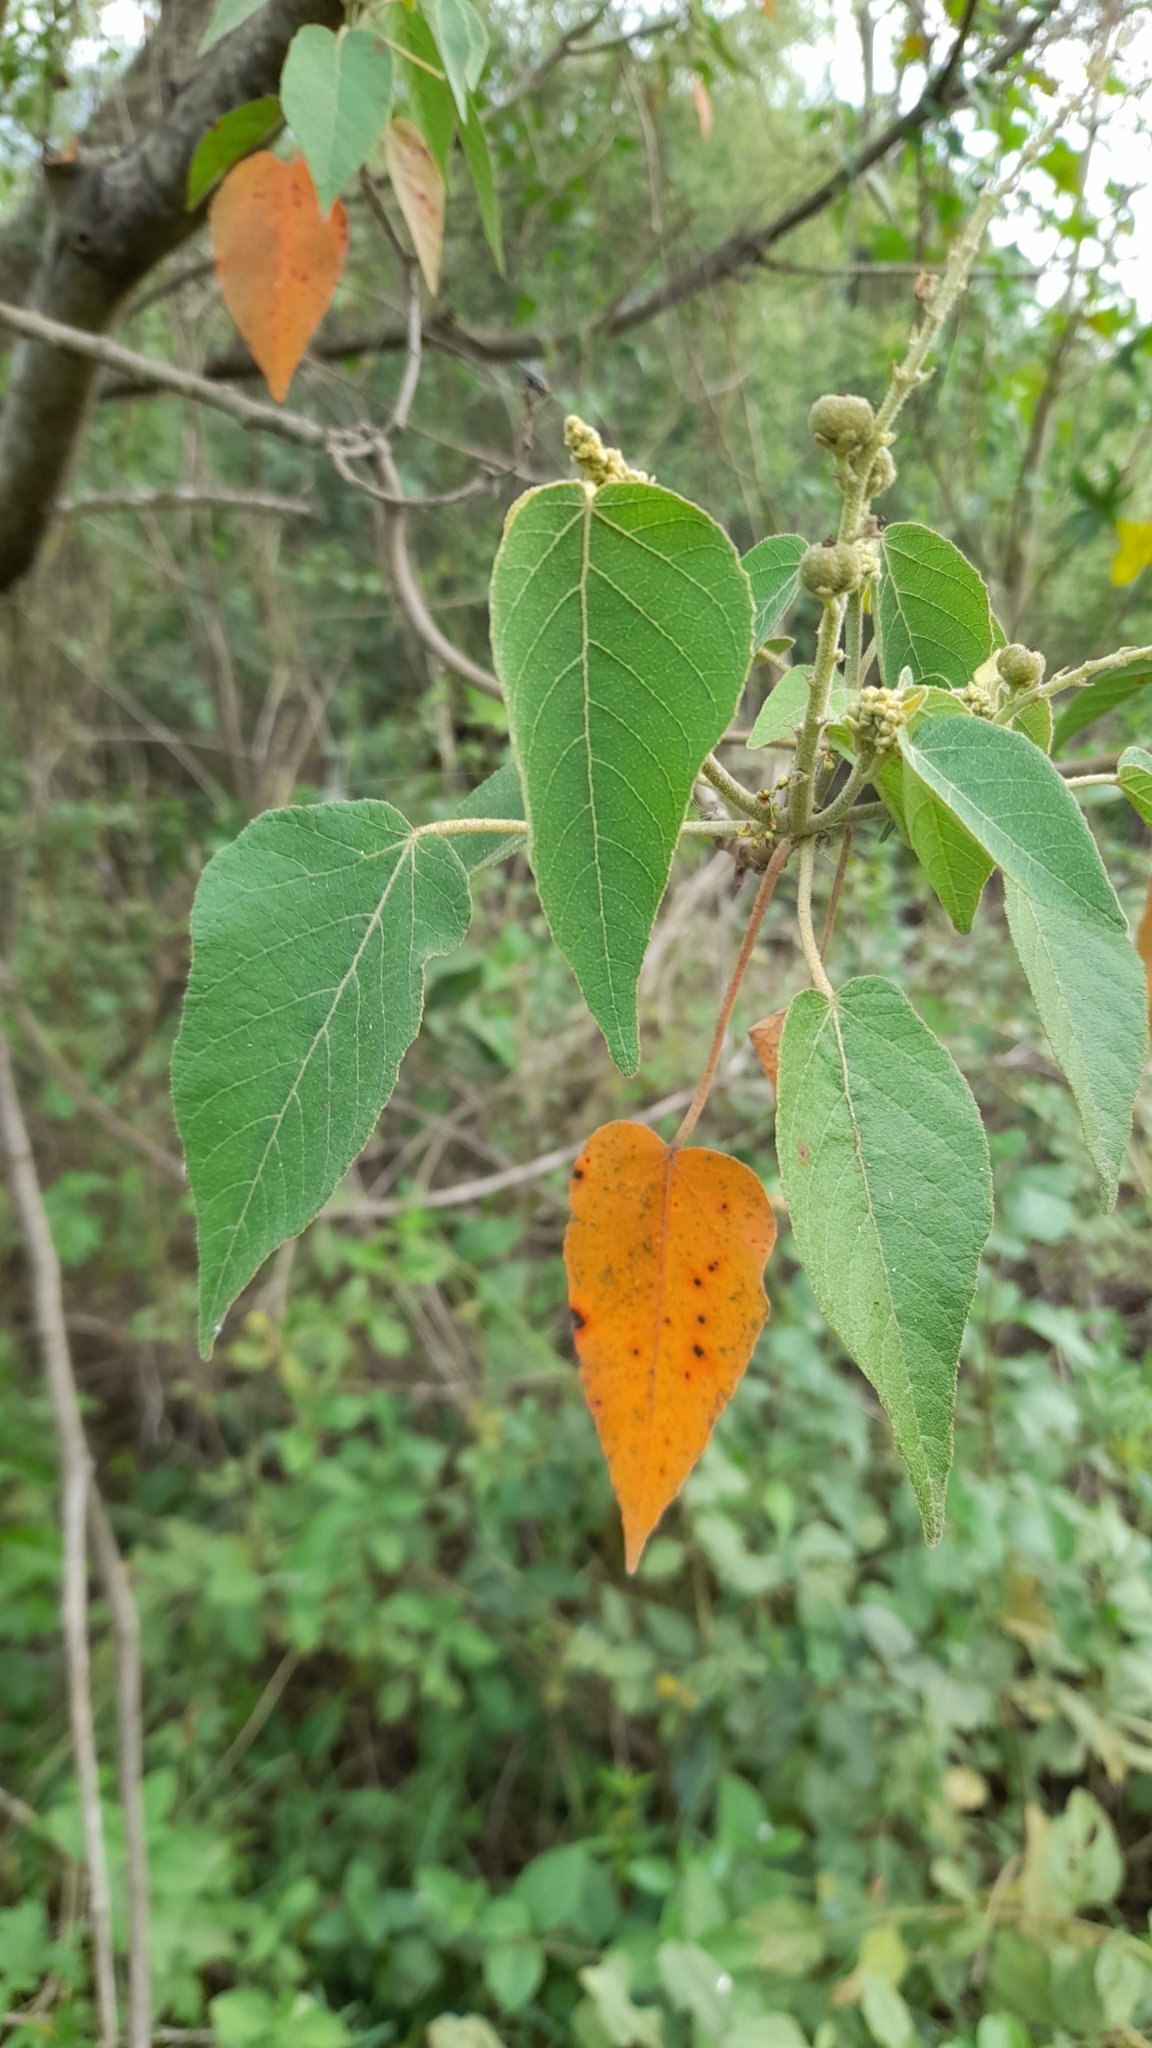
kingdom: Plantae
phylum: Tracheophyta
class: Magnoliopsida
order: Malpighiales
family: Euphorbiaceae
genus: Croton
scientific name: Croton urucurana
